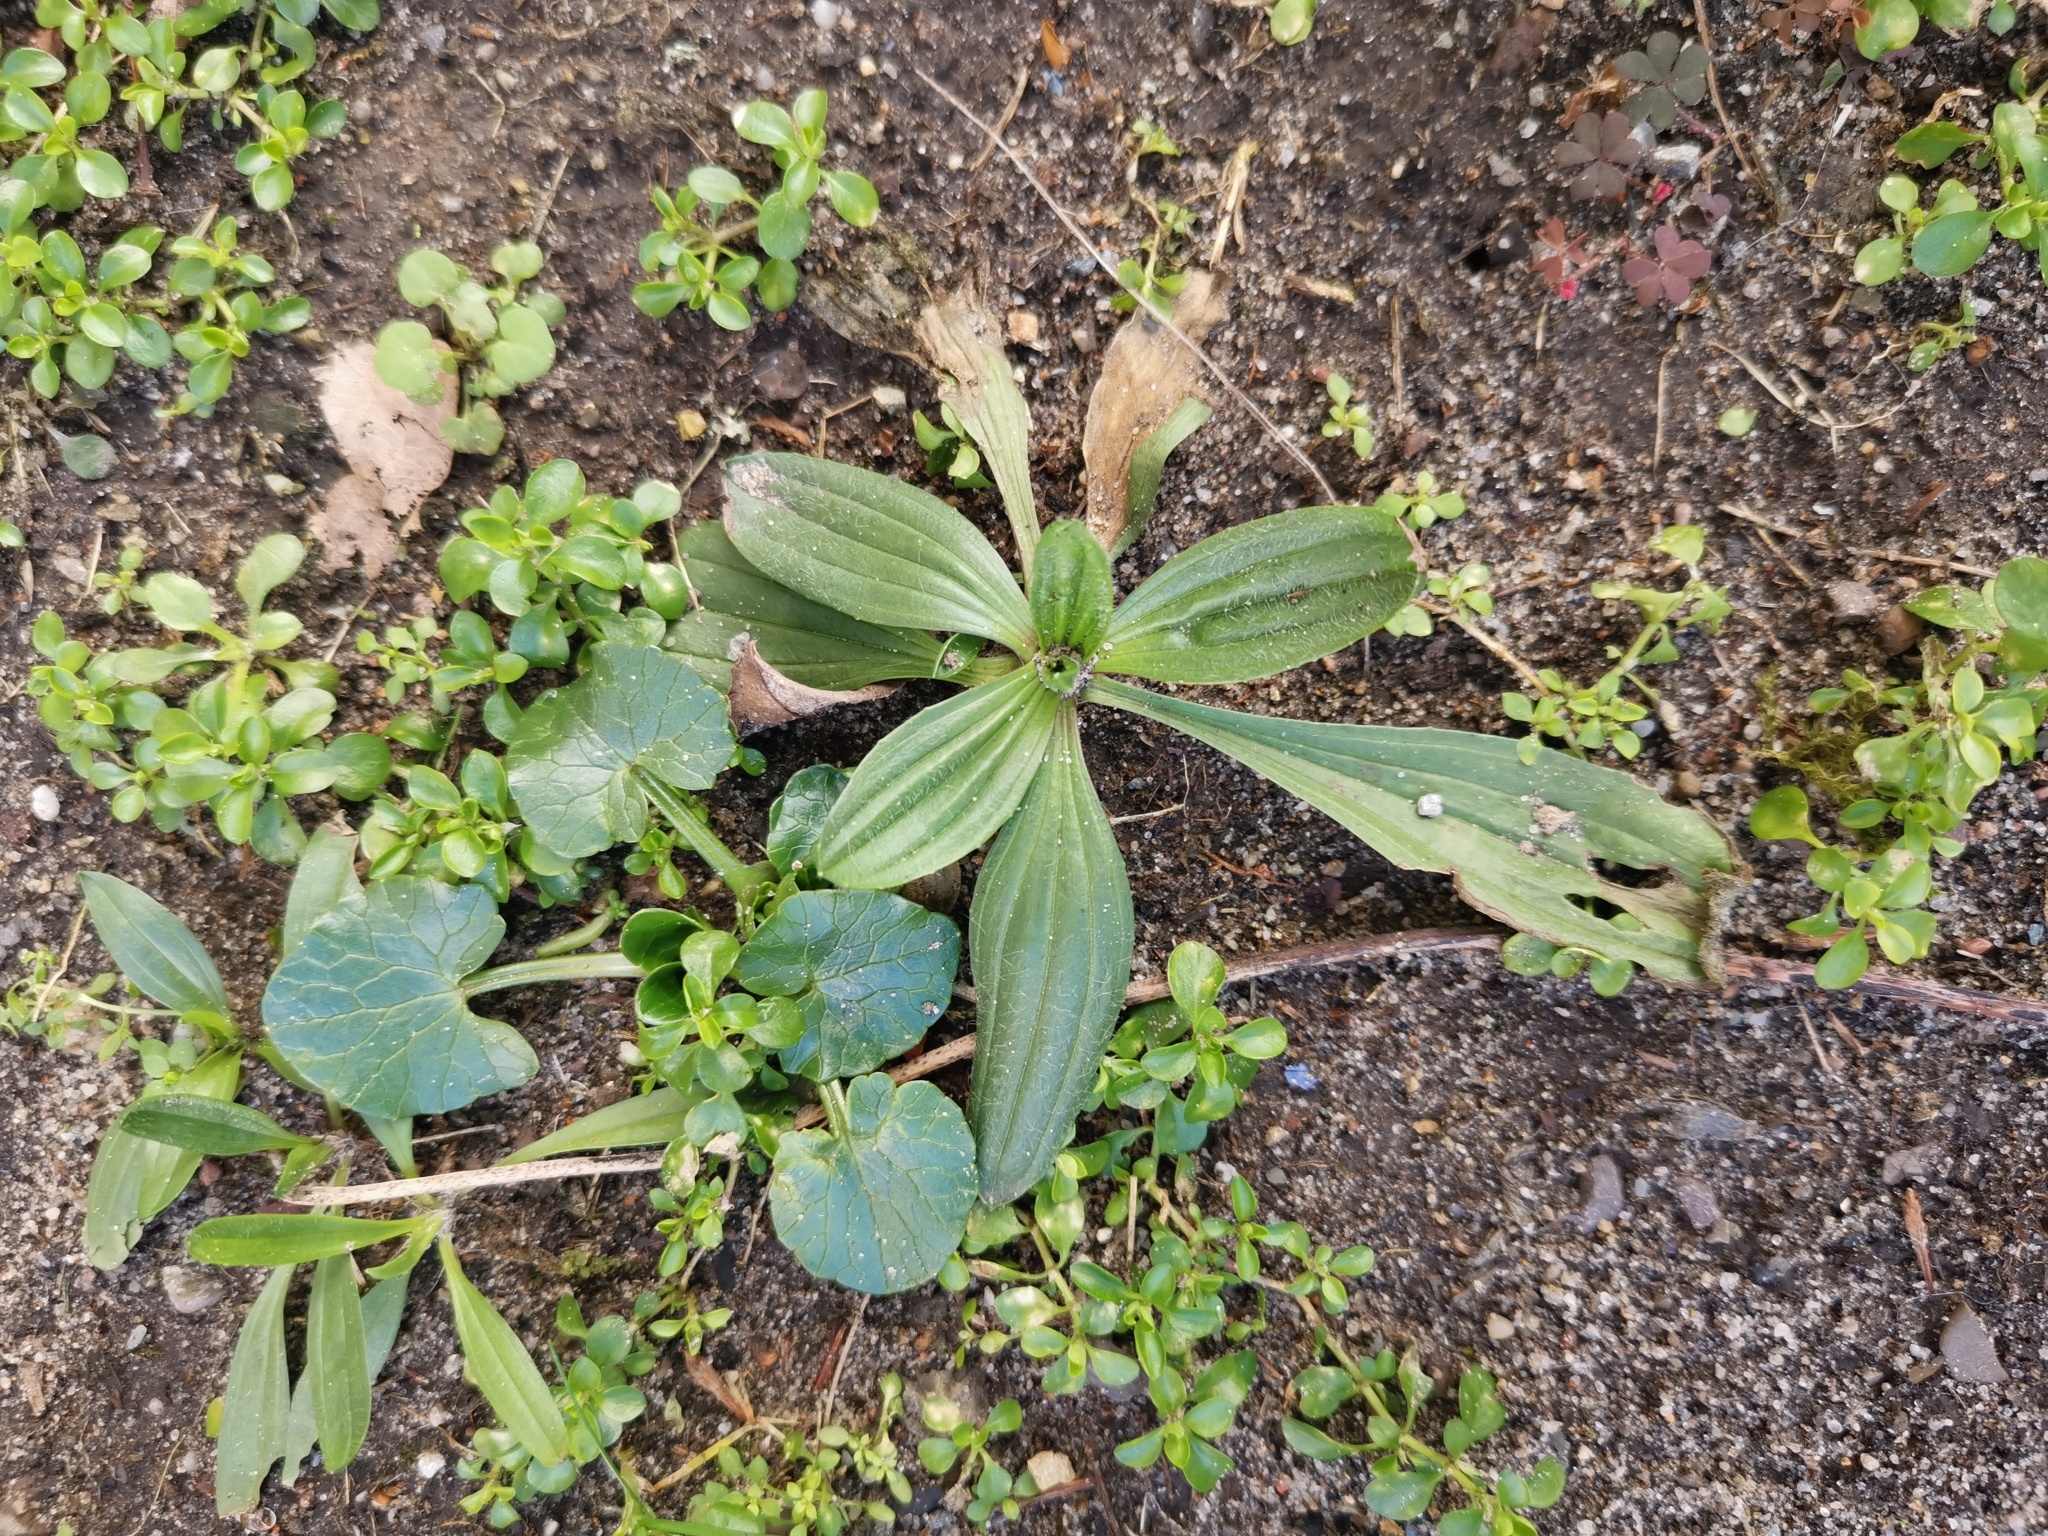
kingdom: Plantae
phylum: Tracheophyta
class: Magnoliopsida
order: Lamiales
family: Plantaginaceae
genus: Plantago
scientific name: Plantago lanceolata
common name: Ribwort plantain
